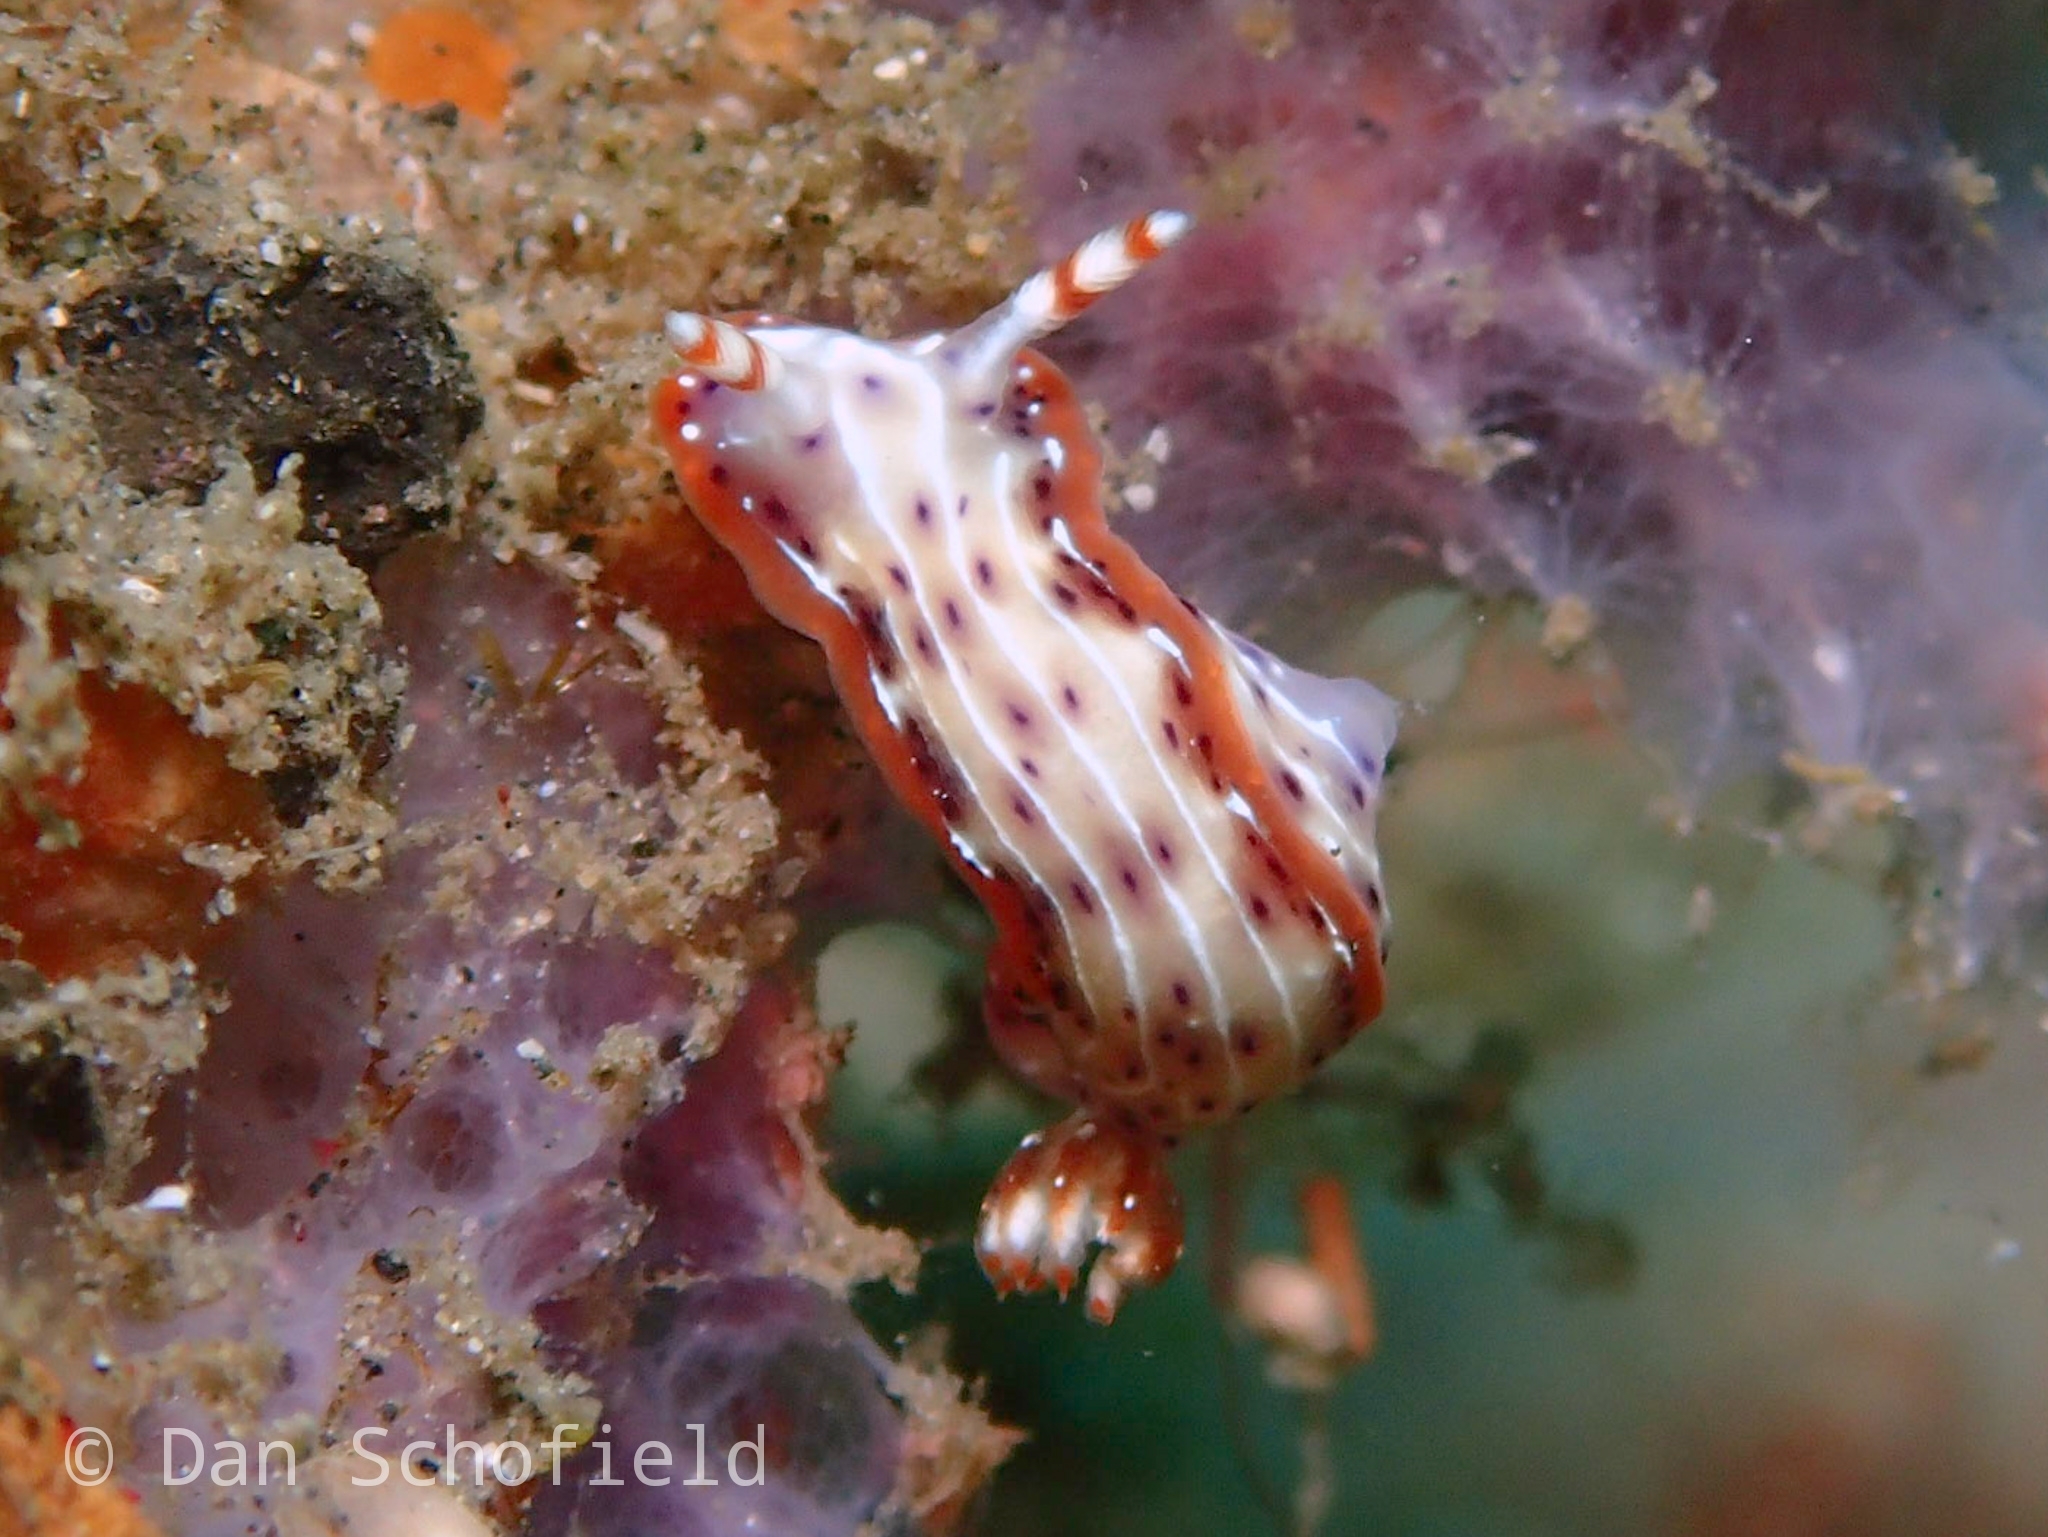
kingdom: Animalia
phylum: Mollusca
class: Gastropoda
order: Nudibranchia
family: Chromodorididae
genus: Hypselodoris
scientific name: Hypselodoris maculosa
